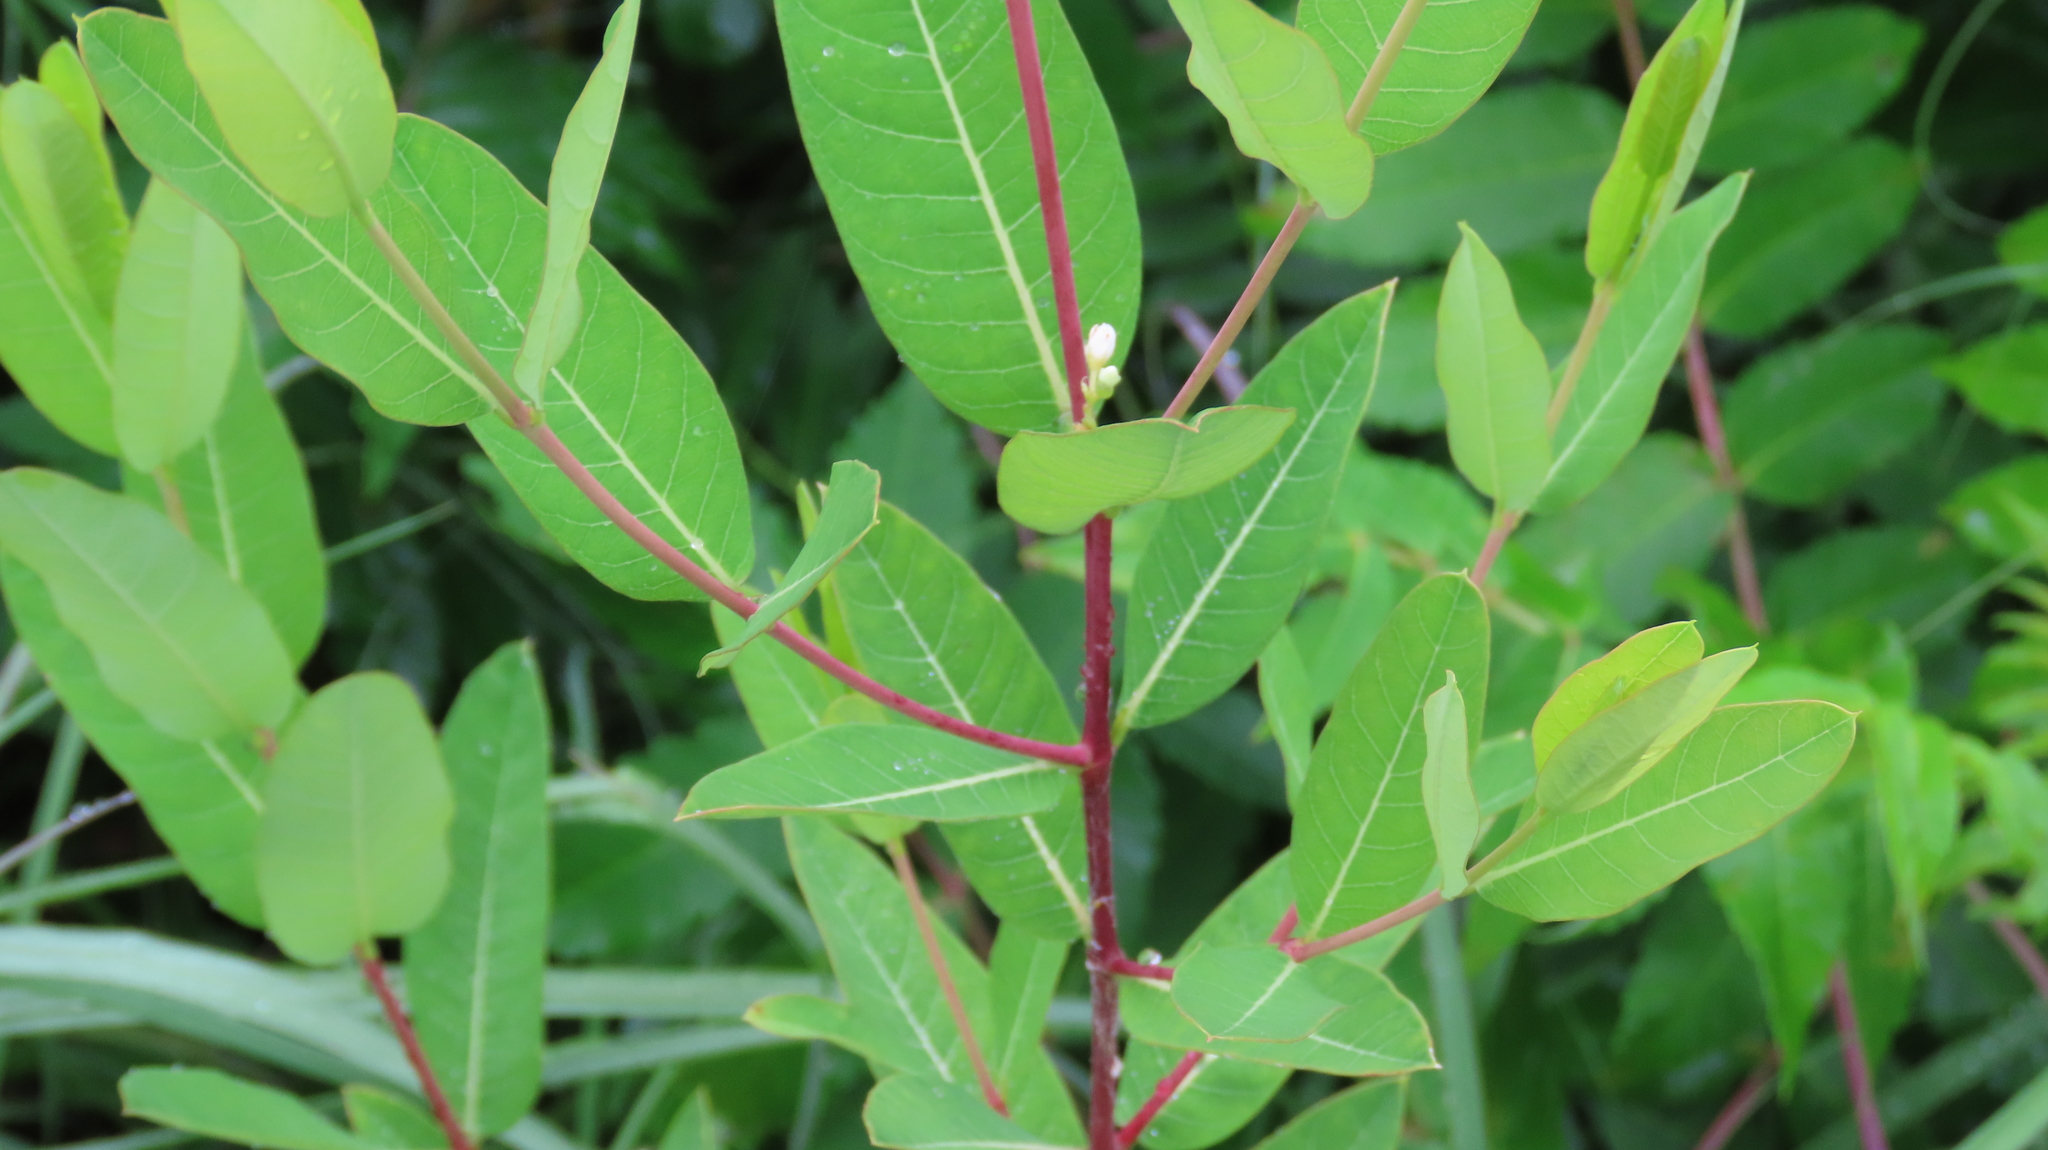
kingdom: Plantae
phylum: Tracheophyta
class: Magnoliopsida
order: Gentianales
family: Apocynaceae
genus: Apocynum
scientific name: Apocynum cannabinum
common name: Hemp dogbane
